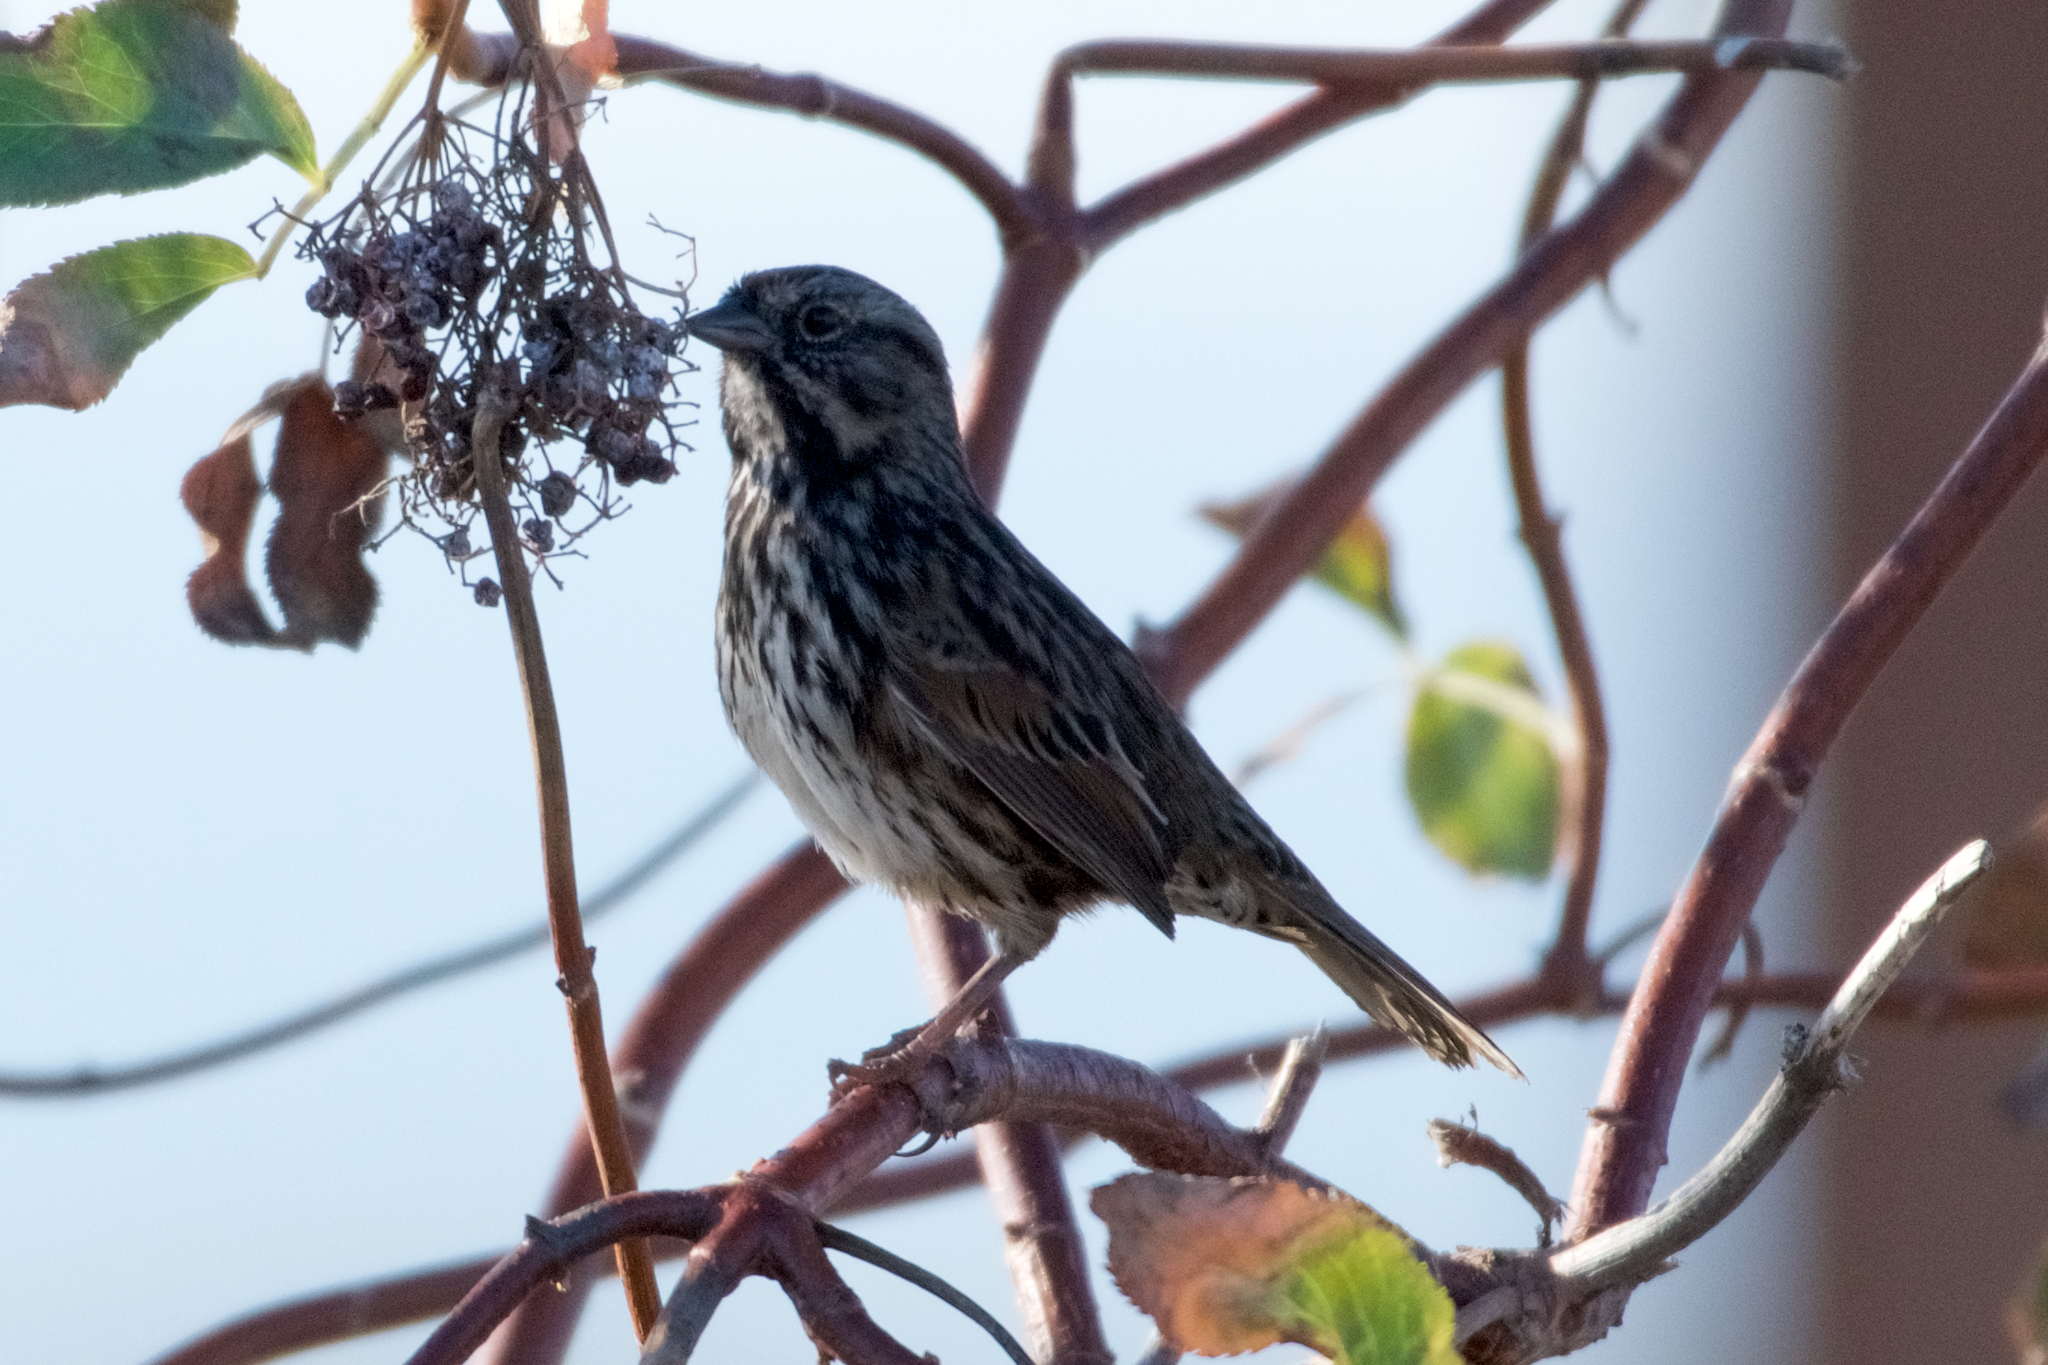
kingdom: Animalia
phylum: Chordata
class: Aves
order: Passeriformes
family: Passerellidae
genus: Melospiza
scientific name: Melospiza melodia
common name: Song sparrow
